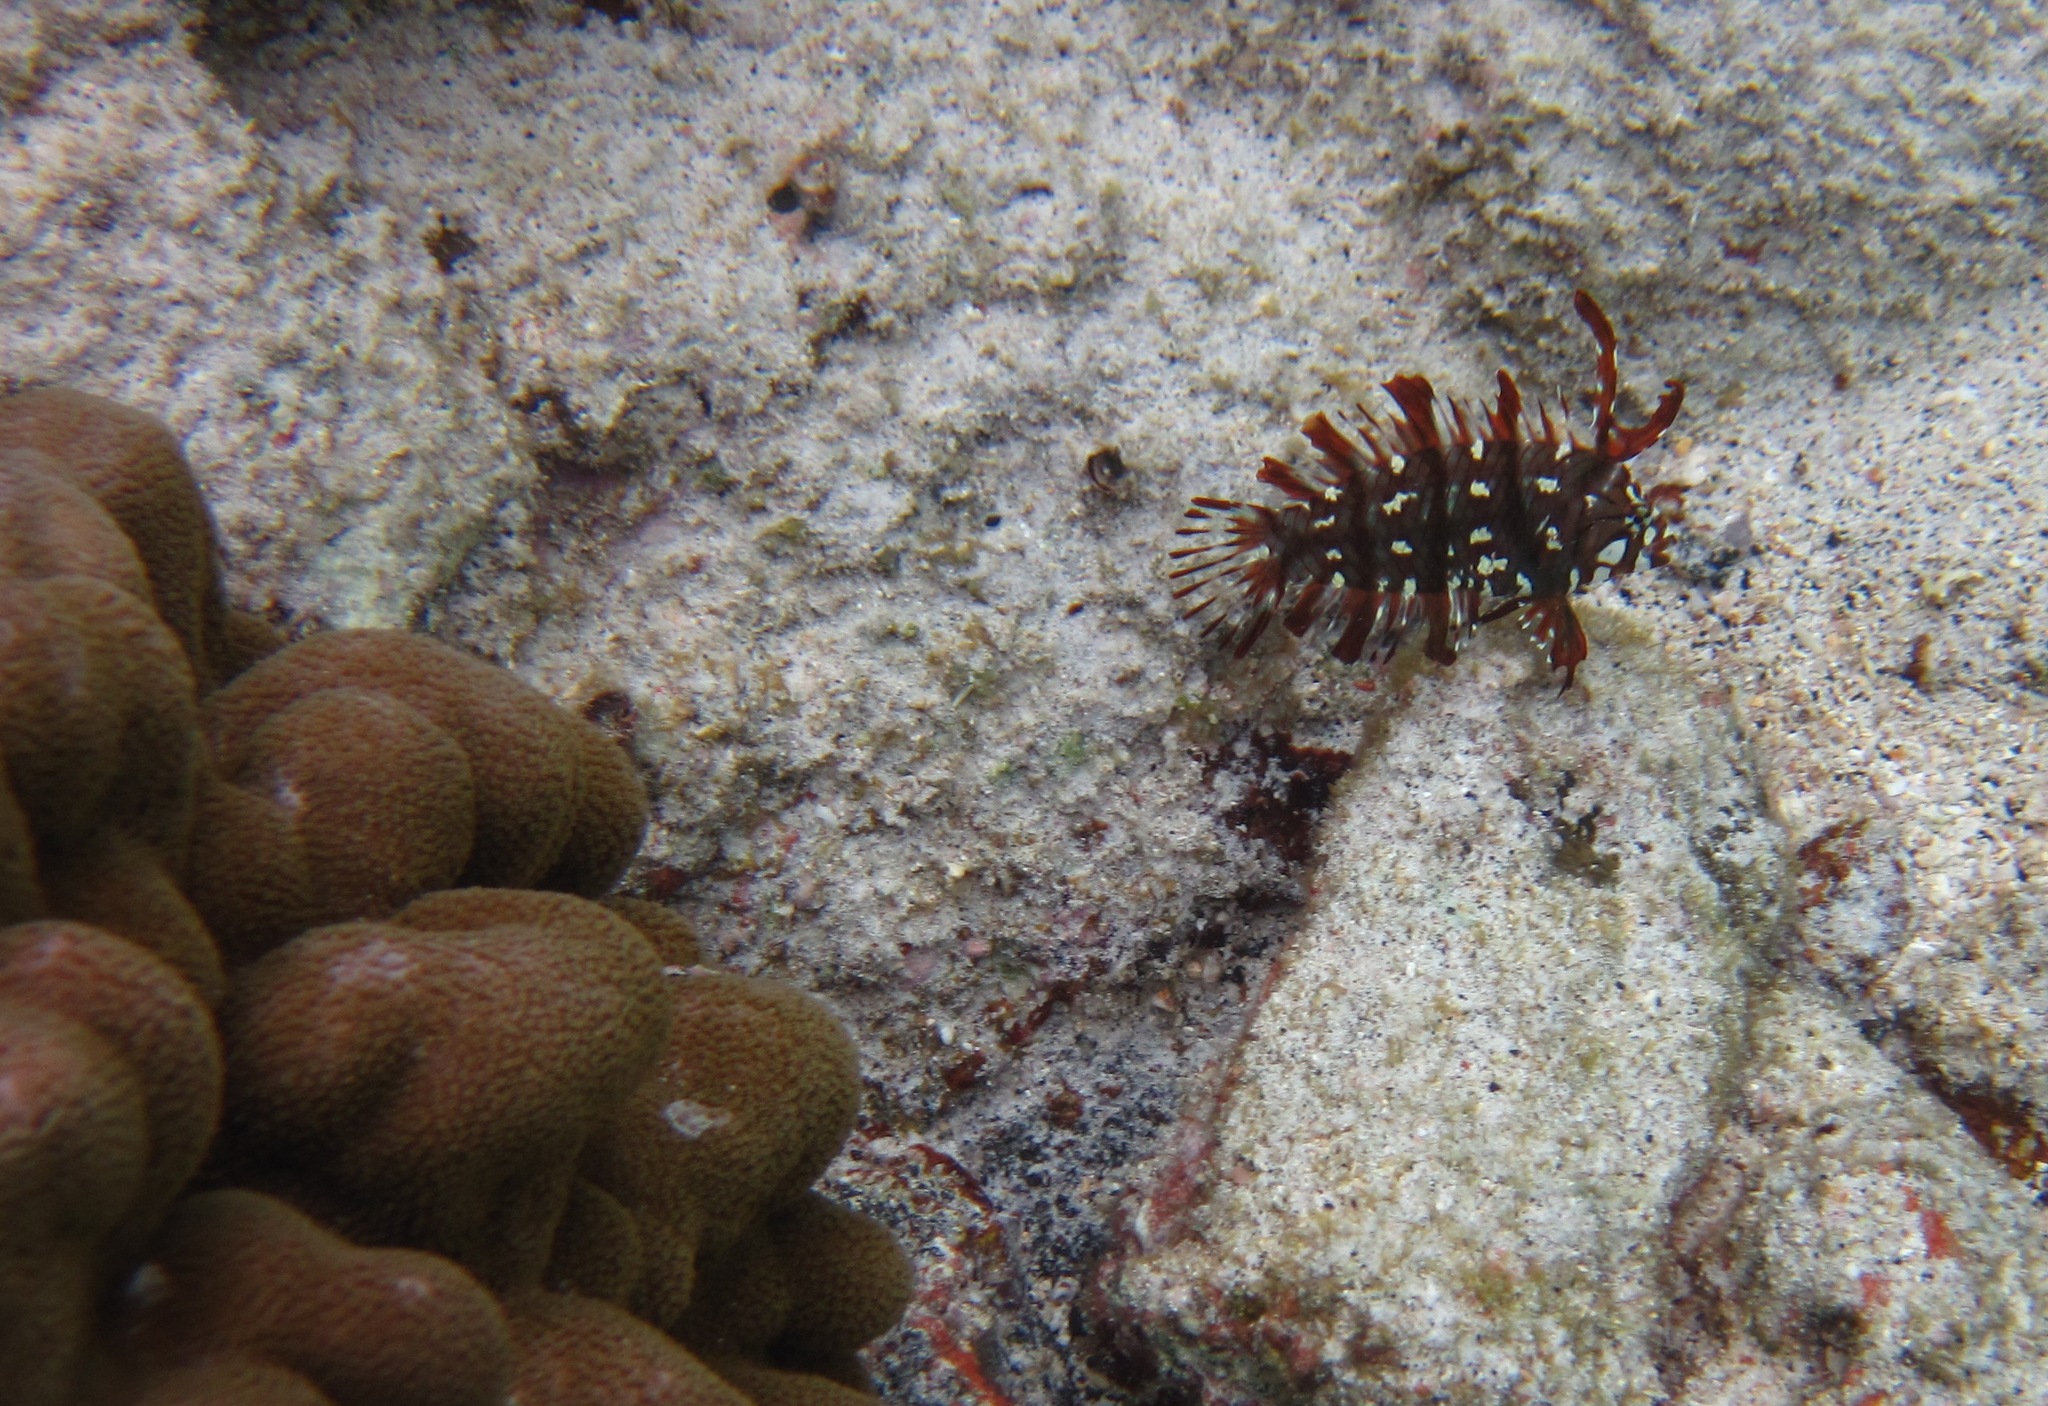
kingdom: Animalia
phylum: Chordata
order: Perciformes
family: Labridae
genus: Novaculichthys
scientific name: Novaculichthys taeniourus
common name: Rockmover wrasse
